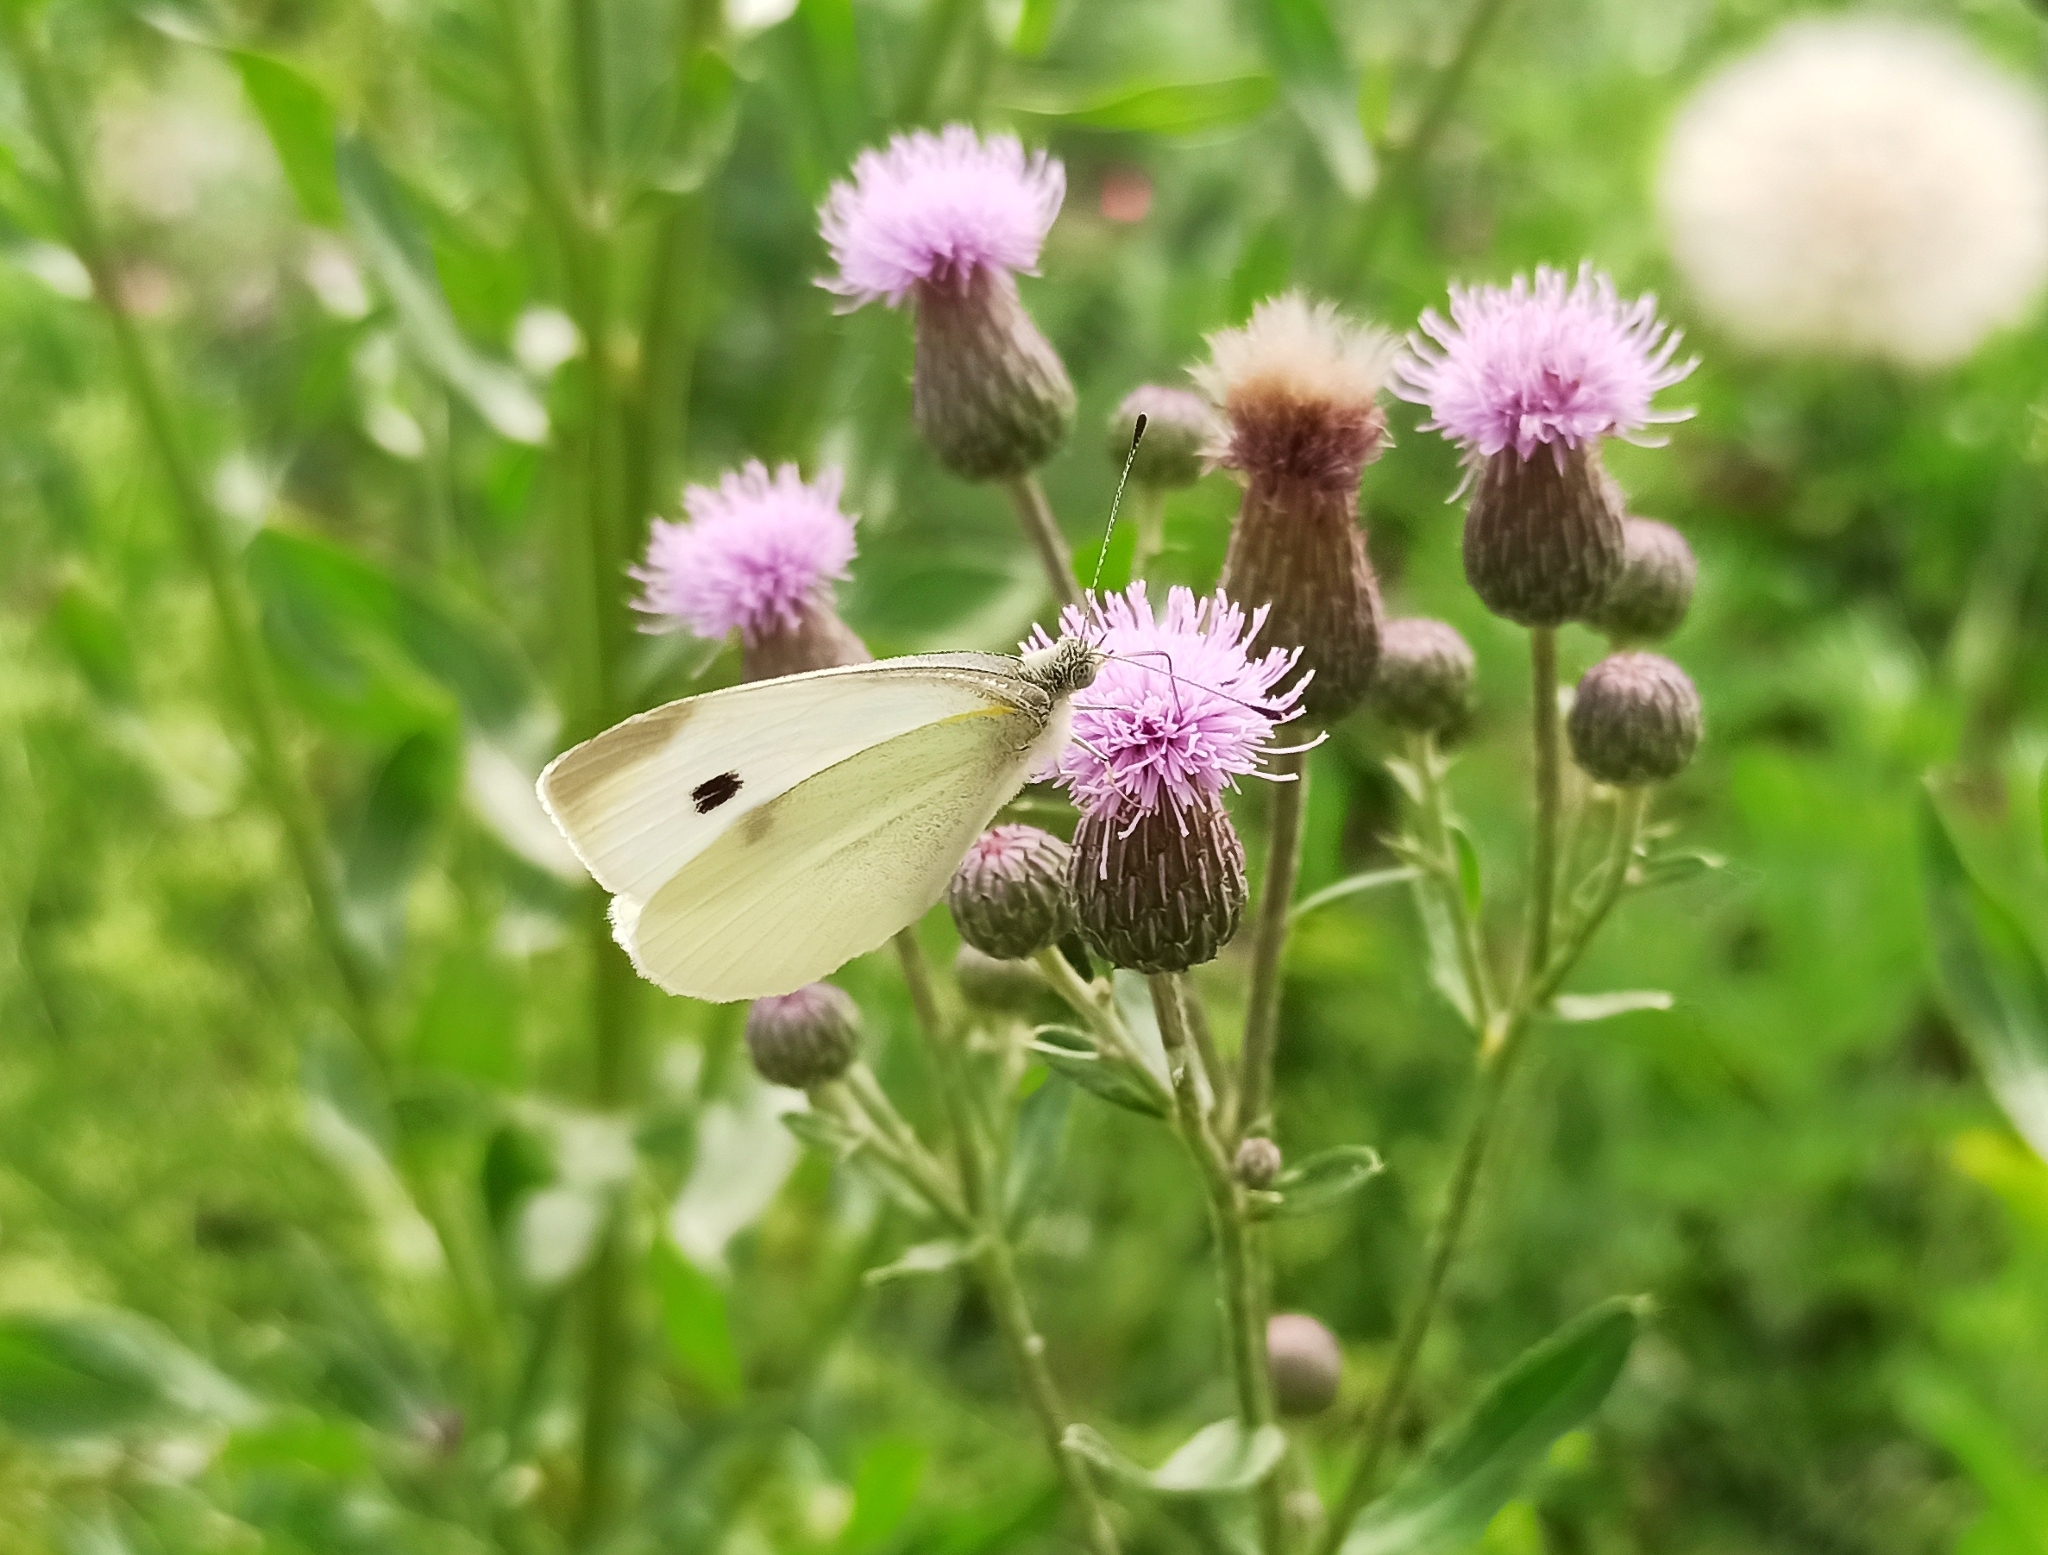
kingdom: Animalia
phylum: Arthropoda
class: Insecta
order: Lepidoptera
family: Pieridae
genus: Pieris
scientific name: Pieris rapae
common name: Small white
